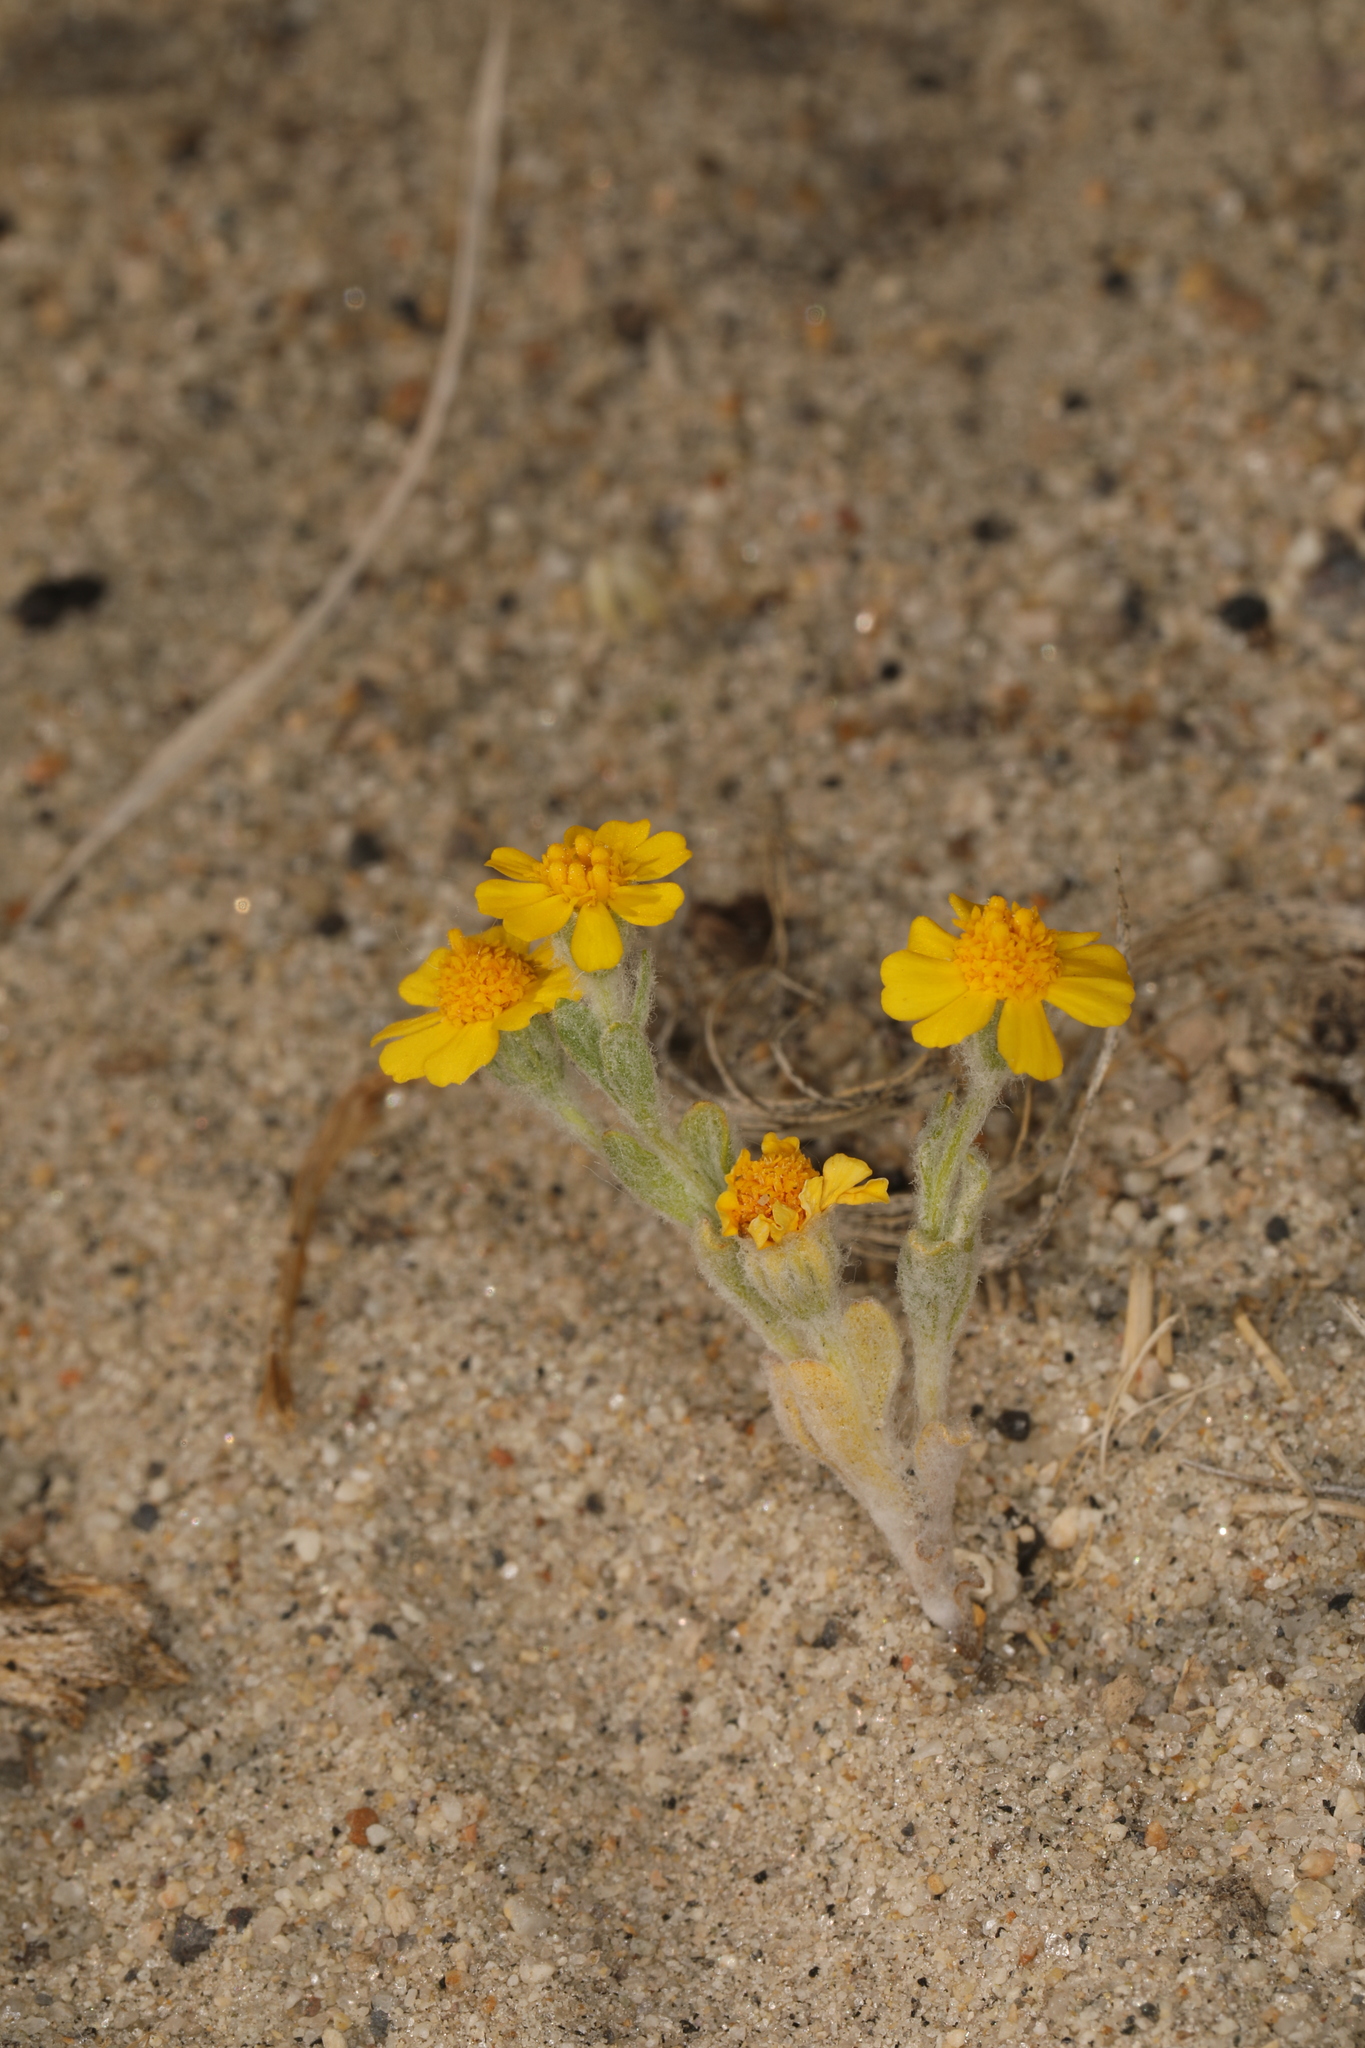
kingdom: Plantae
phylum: Tracheophyta
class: Magnoliopsida
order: Asterales
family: Asteraceae
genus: Eriophyllum
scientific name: Eriophyllum wallacei
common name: Wallace's woolly daisy
